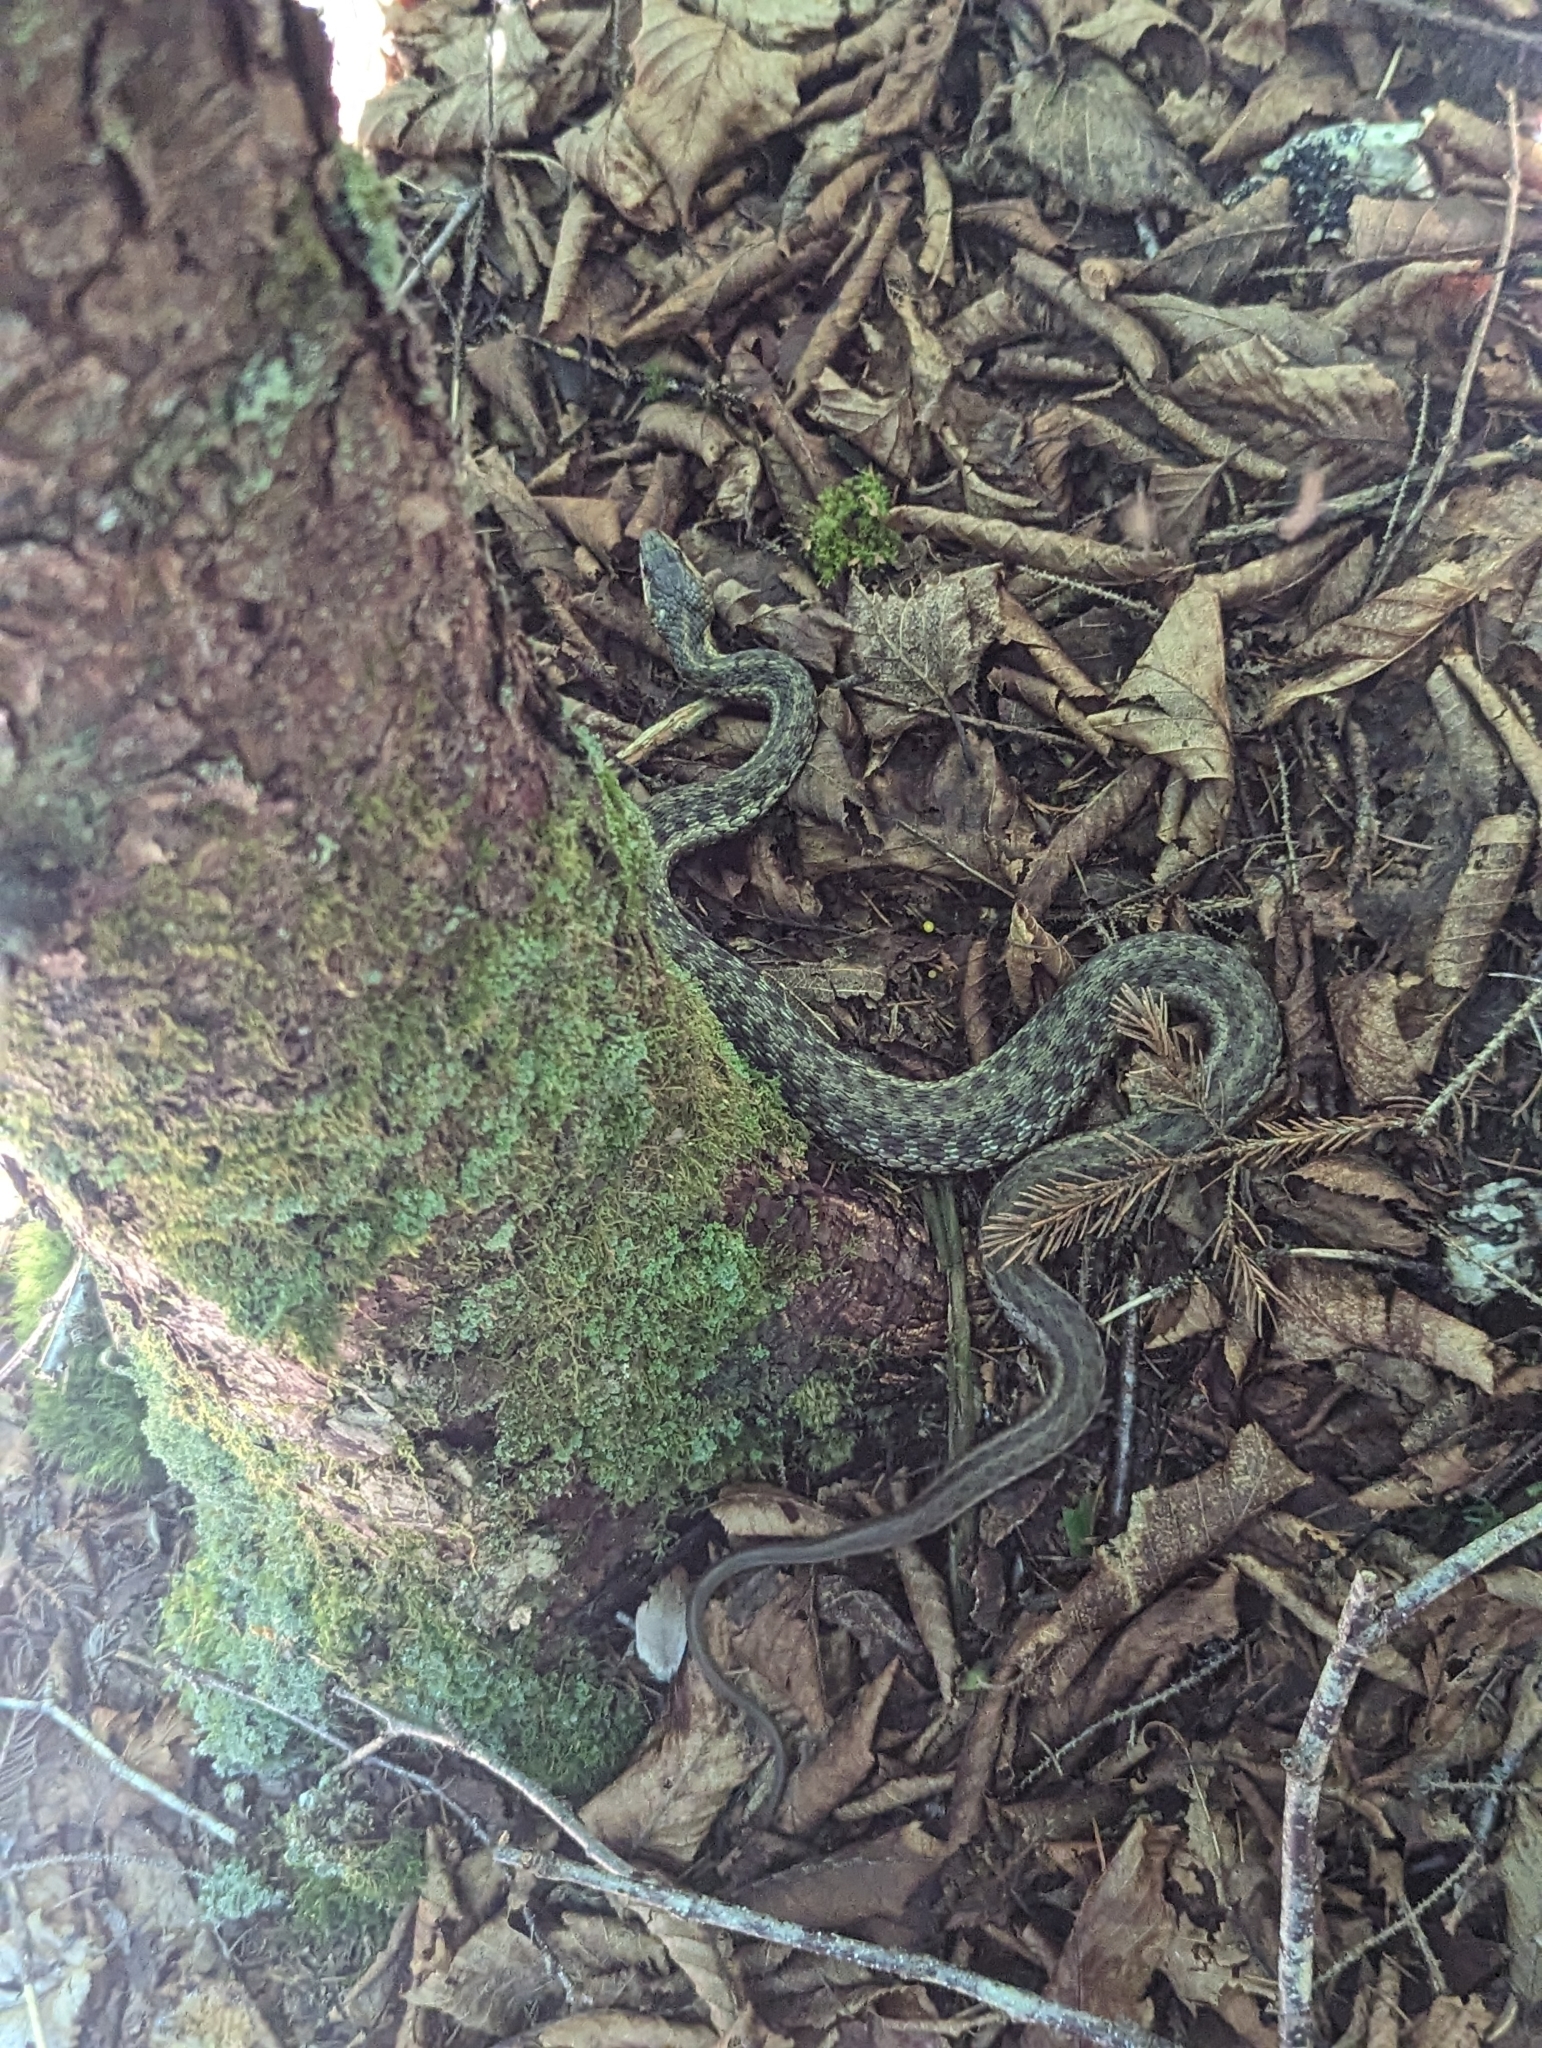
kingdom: Animalia
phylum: Chordata
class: Squamata
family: Colubridae
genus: Thamnophis
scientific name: Thamnophis sirtalis
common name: Common garter snake
